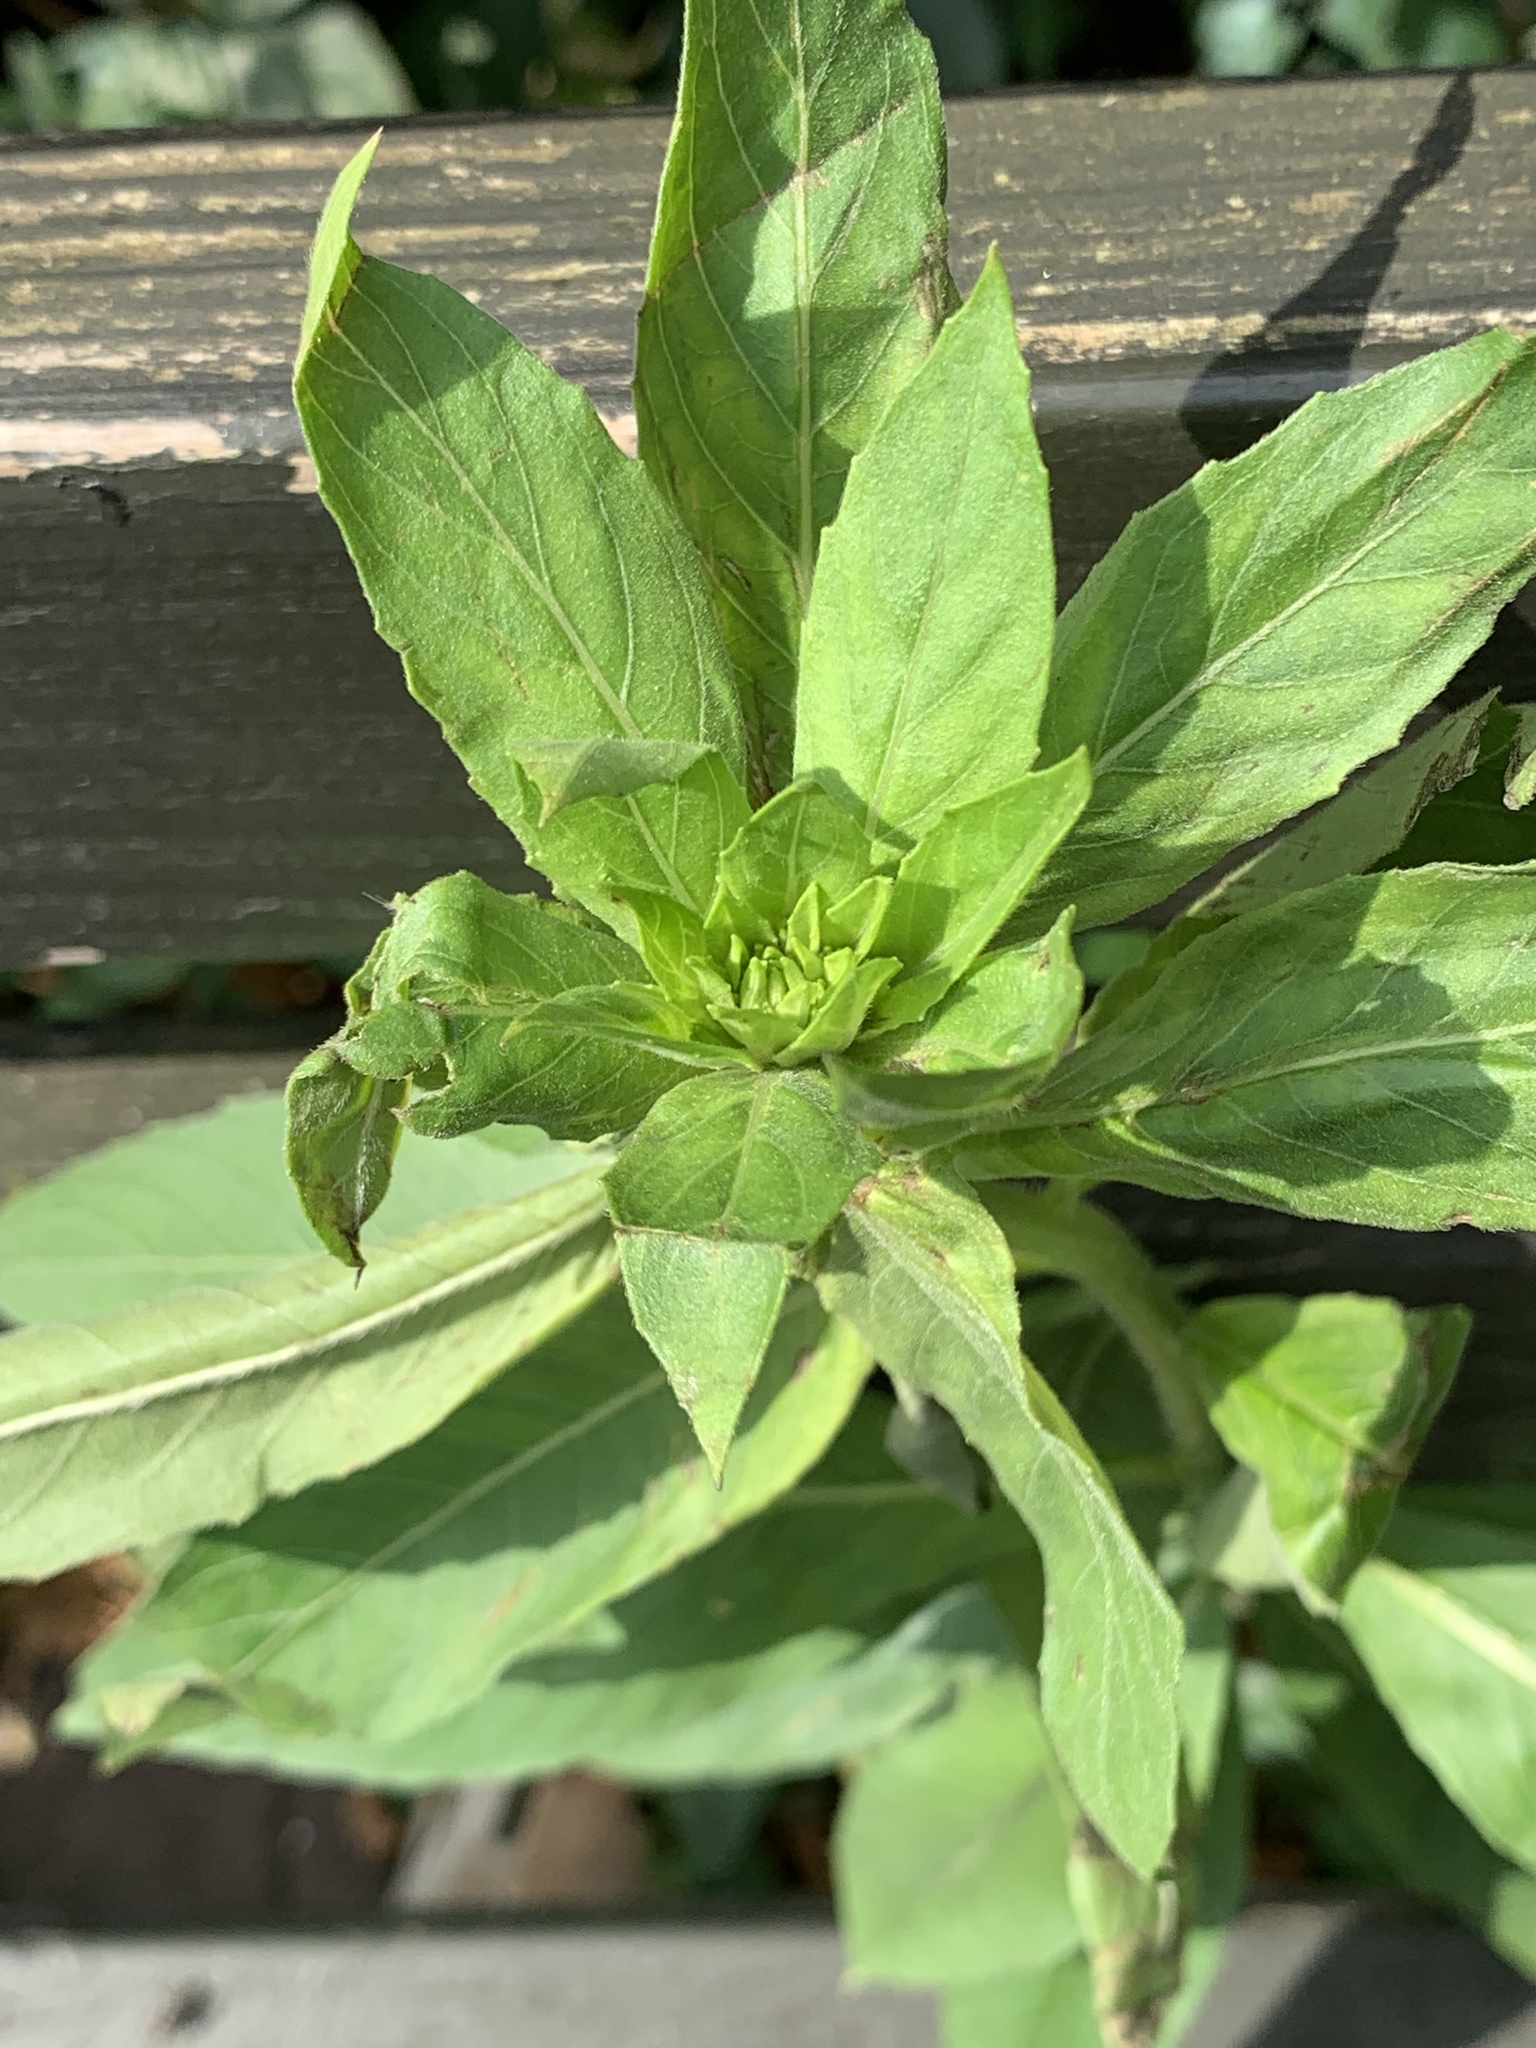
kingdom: Plantae
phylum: Tracheophyta
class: Magnoliopsida
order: Myrtales
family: Onagraceae
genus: Oenothera
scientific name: Oenothera biennis
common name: Common evening-primrose
